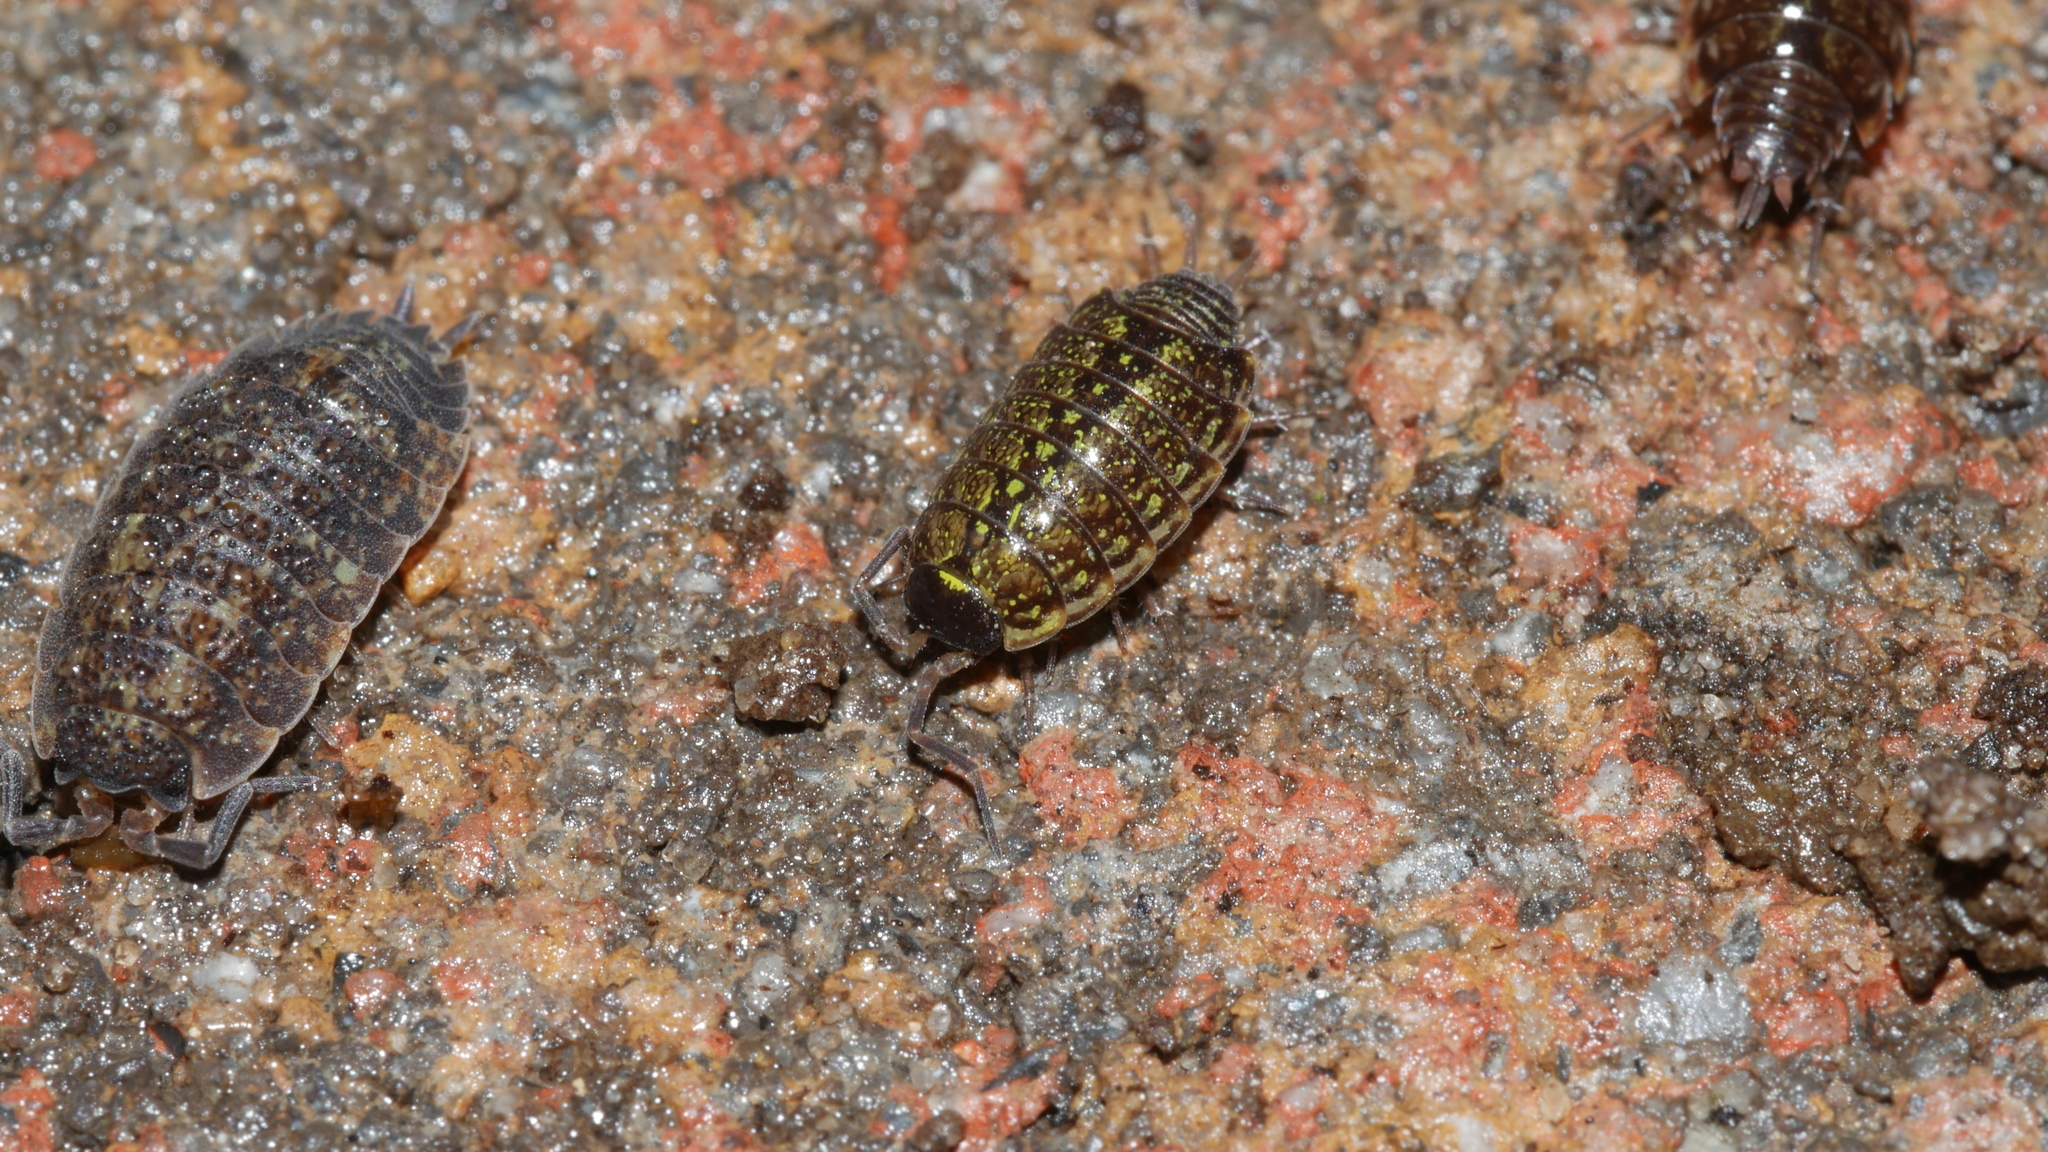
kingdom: Animalia
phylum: Arthropoda
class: Malacostraca
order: Isopoda
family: Philosciidae
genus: Philoscia
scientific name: Philoscia muscorum
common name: Common striped woodlouse
